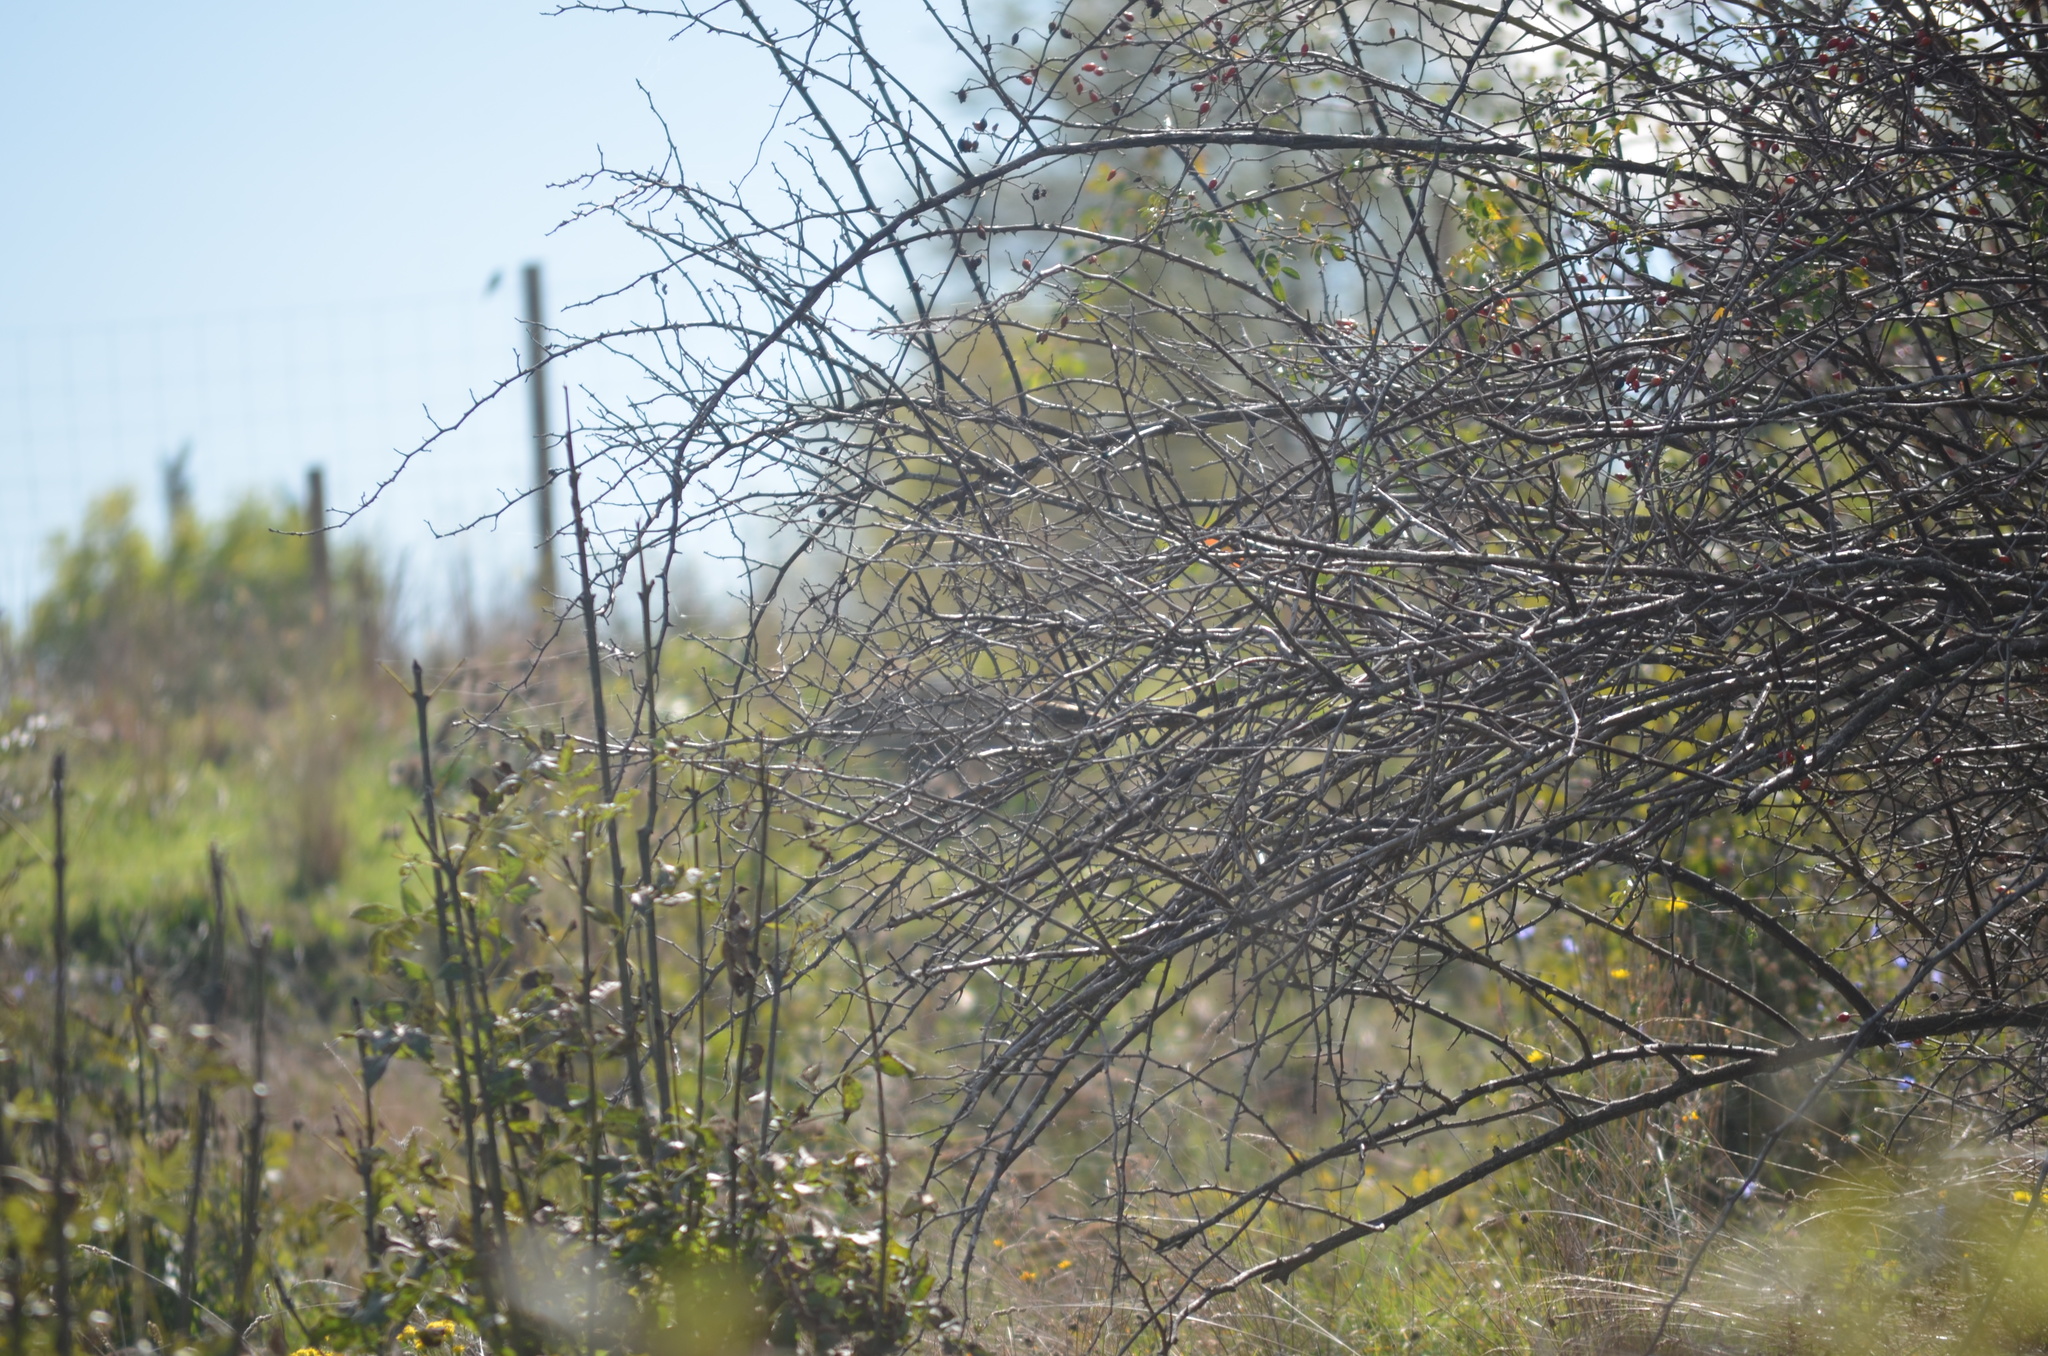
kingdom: Animalia
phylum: Chordata
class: Aves
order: Passeriformes
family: Sylviidae
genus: Sylvia
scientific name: Sylvia atricapilla
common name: Eurasian blackcap
